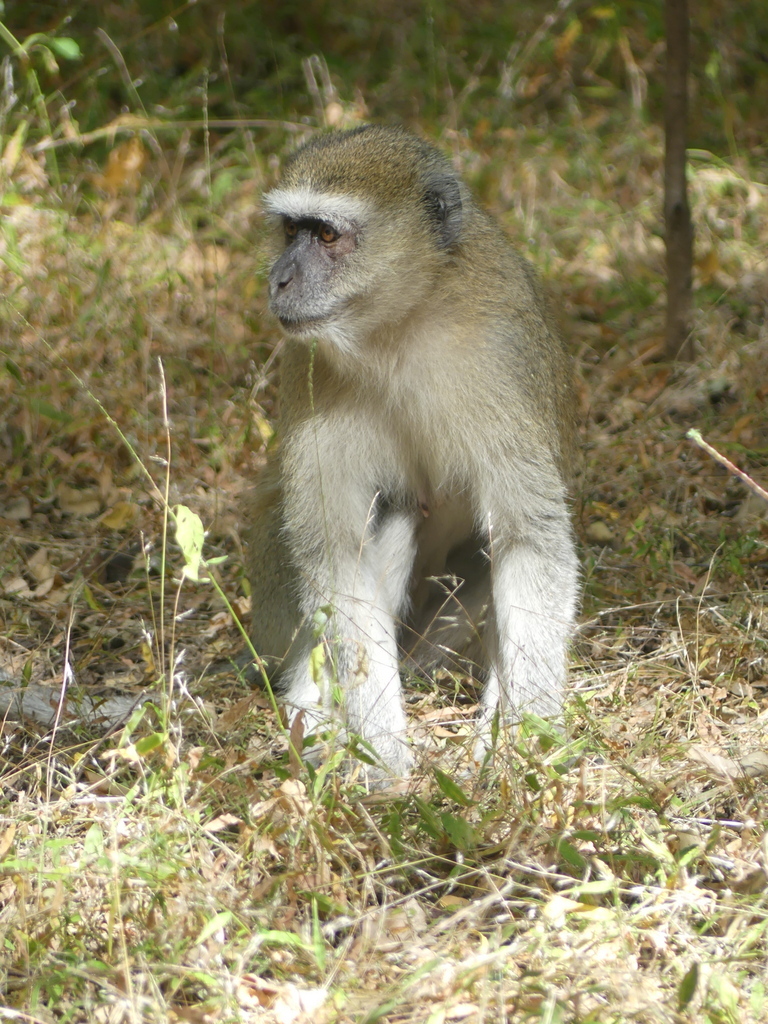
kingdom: Animalia
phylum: Chordata
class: Mammalia
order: Primates
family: Cercopithecidae
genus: Chlorocebus
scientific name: Chlorocebus pygerythrus
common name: Vervet monkey
